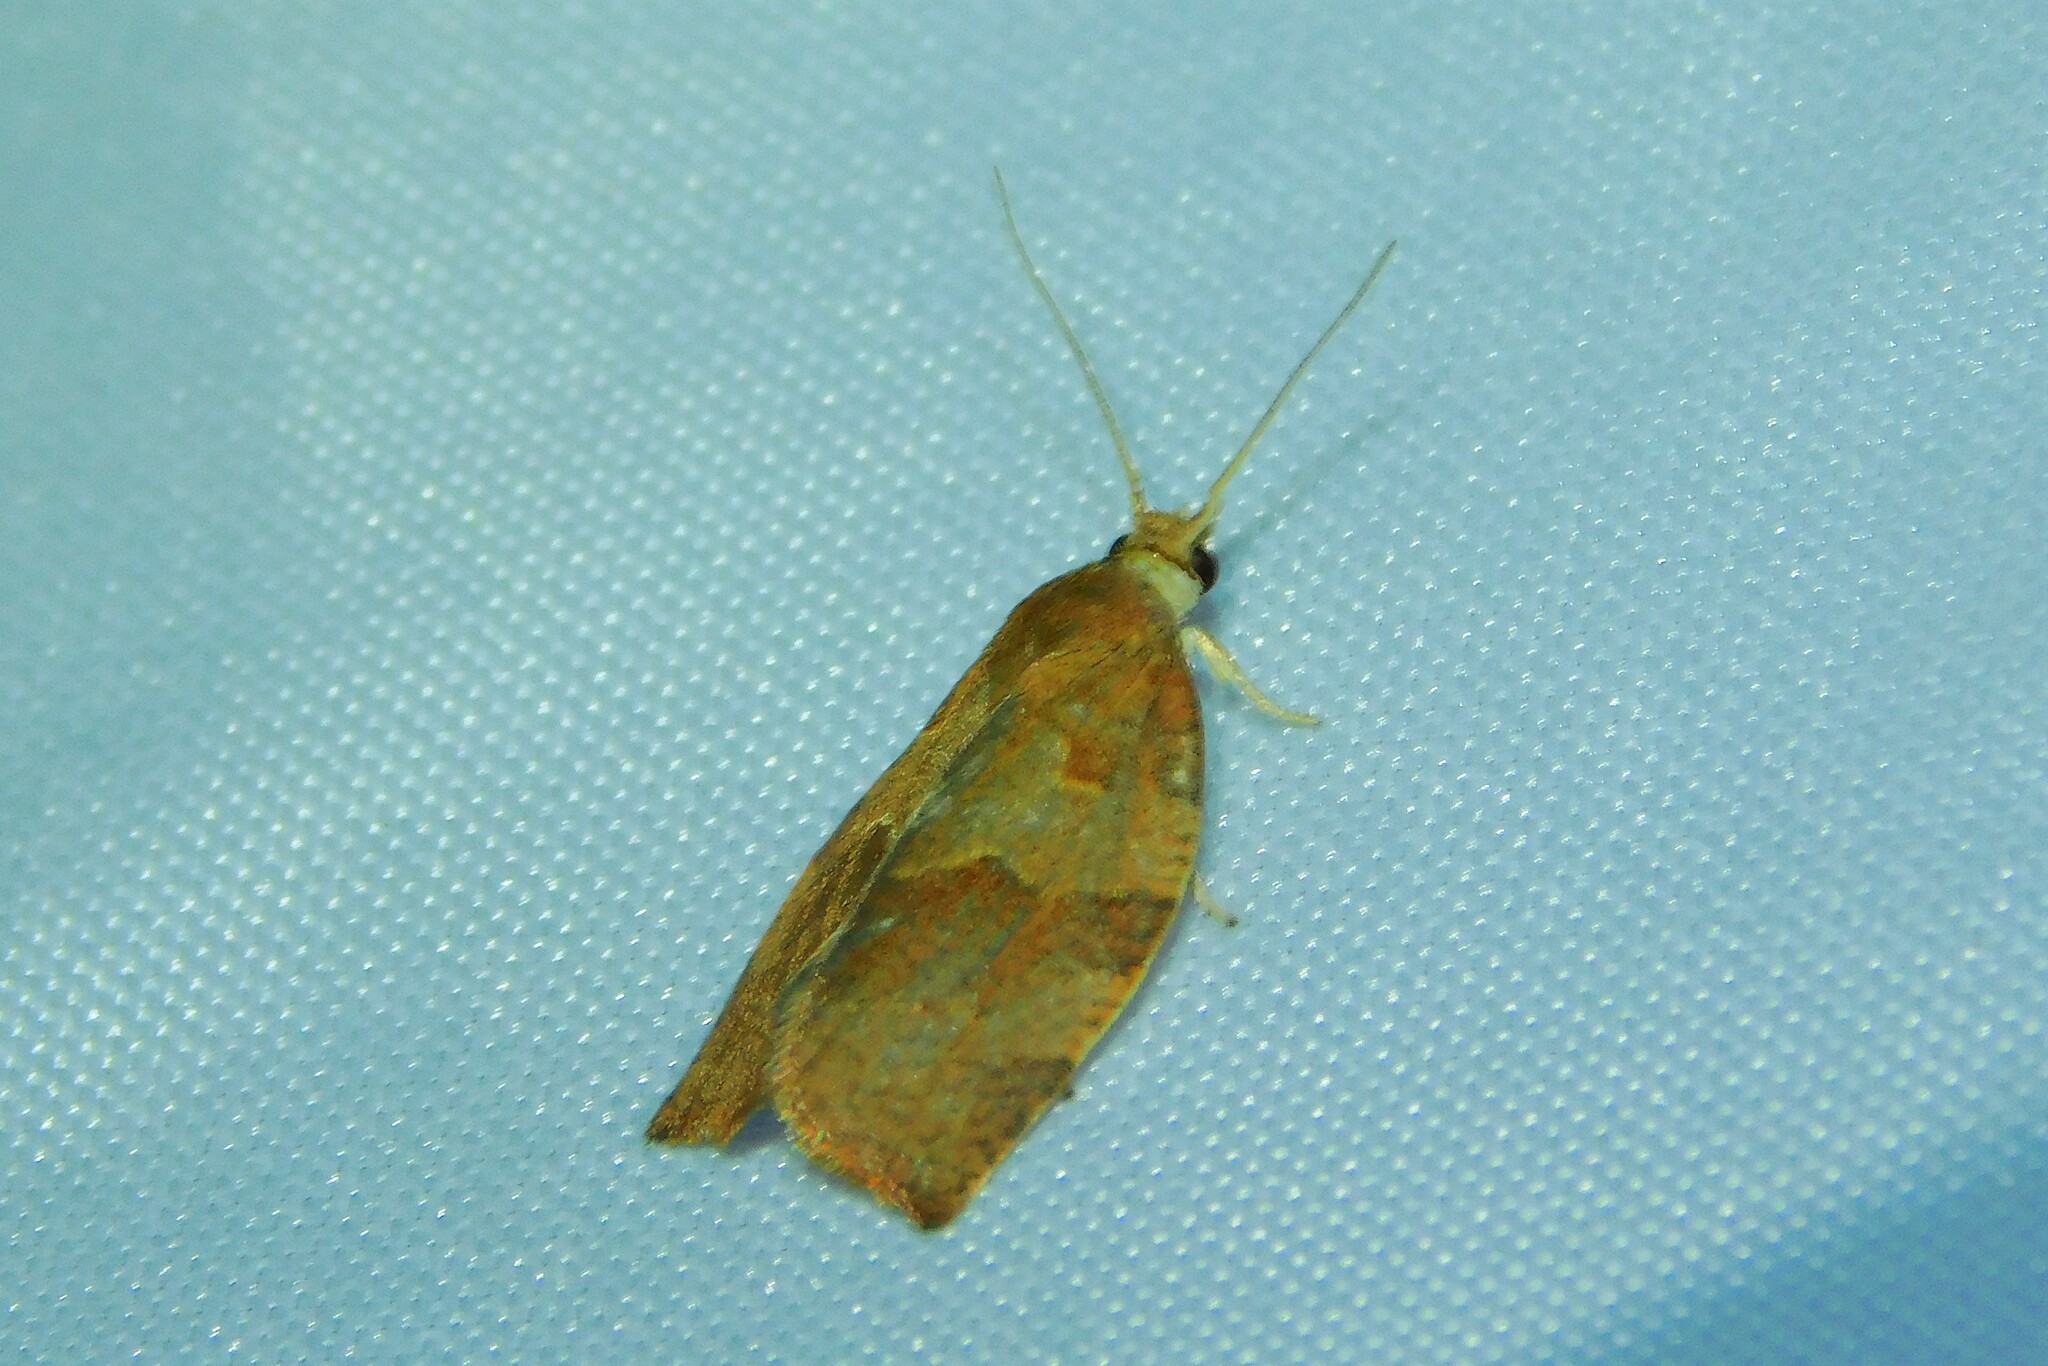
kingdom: Animalia
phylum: Arthropoda
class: Insecta
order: Lepidoptera
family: Tortricidae
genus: Pandemis
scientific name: Pandemis heparana
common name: Dark fruit-tree tortrix
